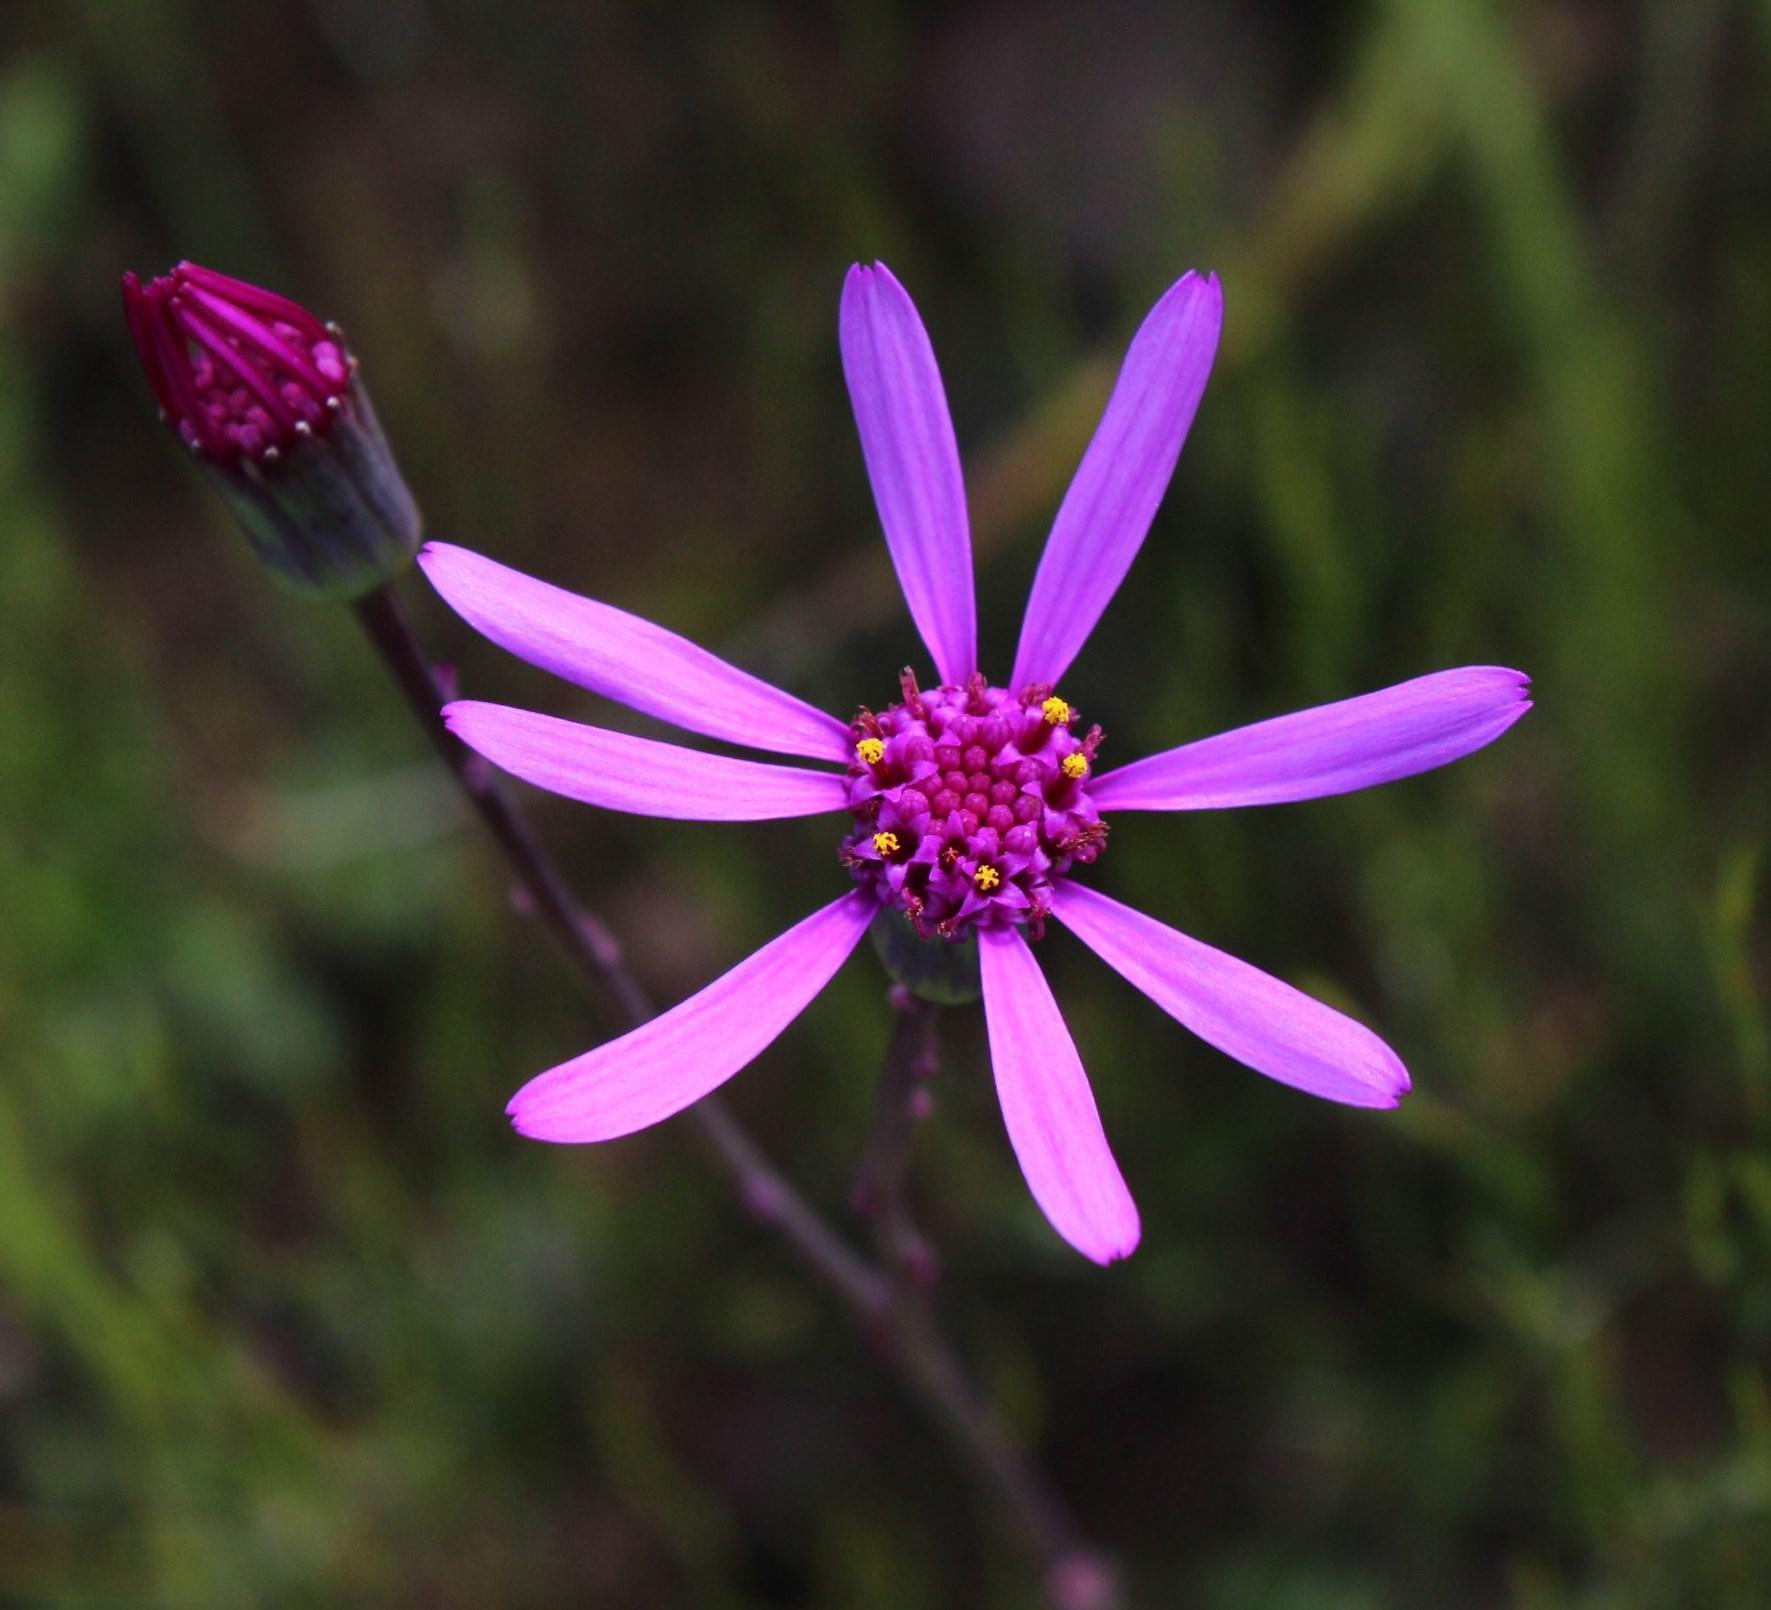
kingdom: Plantae
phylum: Tracheophyta
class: Magnoliopsida
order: Asterales
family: Asteraceae
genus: Senecio
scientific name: Senecio cymbalariifolius
